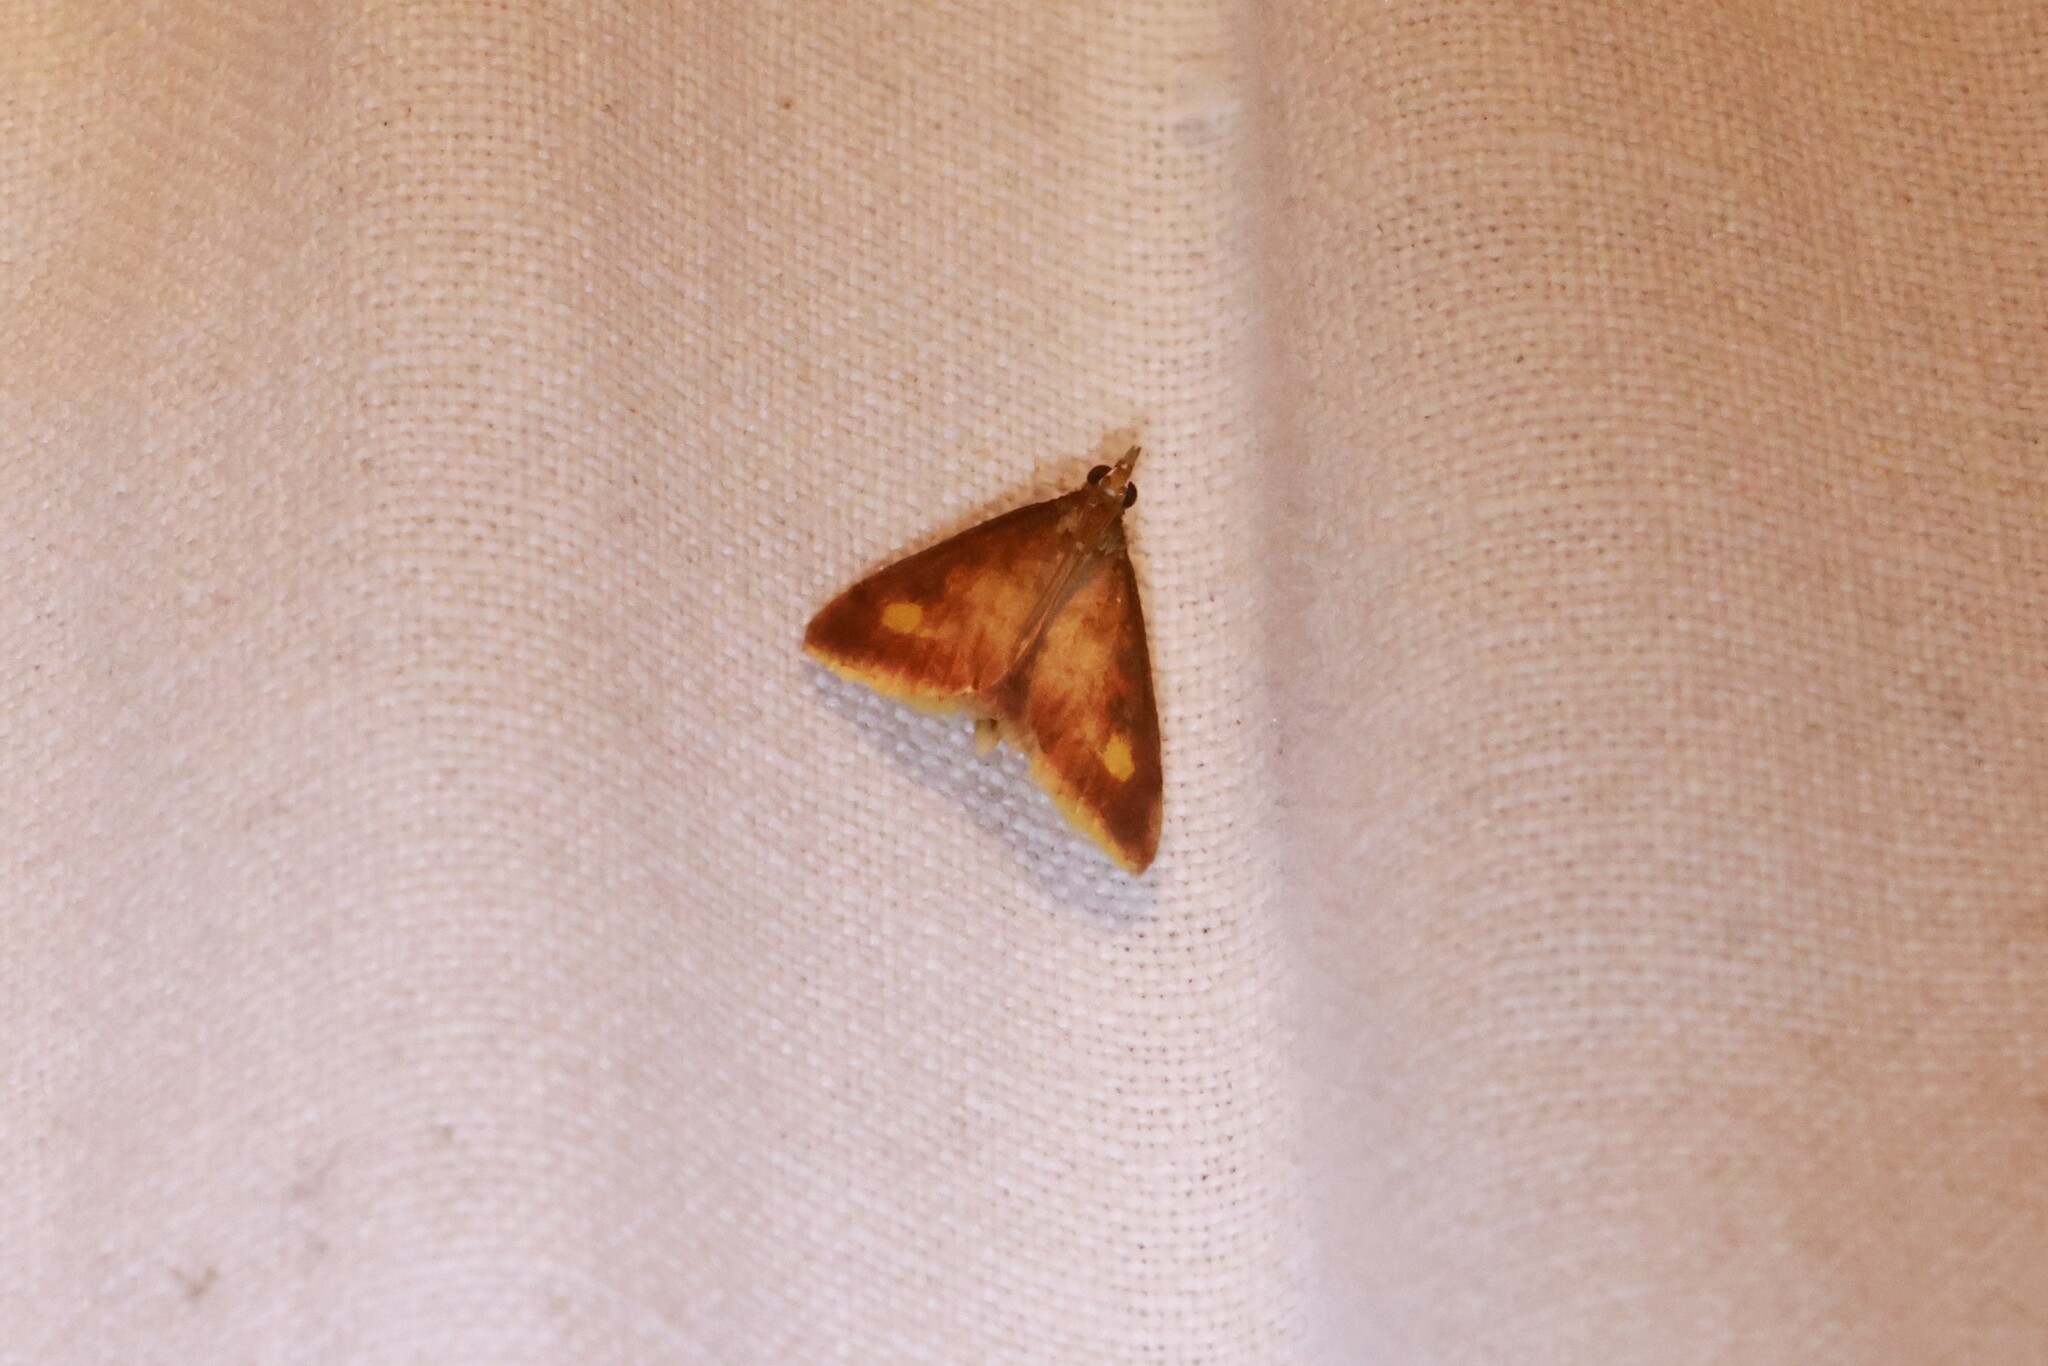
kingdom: Animalia
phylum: Arthropoda
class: Insecta
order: Lepidoptera
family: Crambidae
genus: Pyrausta
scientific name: Pyrausta acrionalis
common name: Mint-loving pyrausta moth
